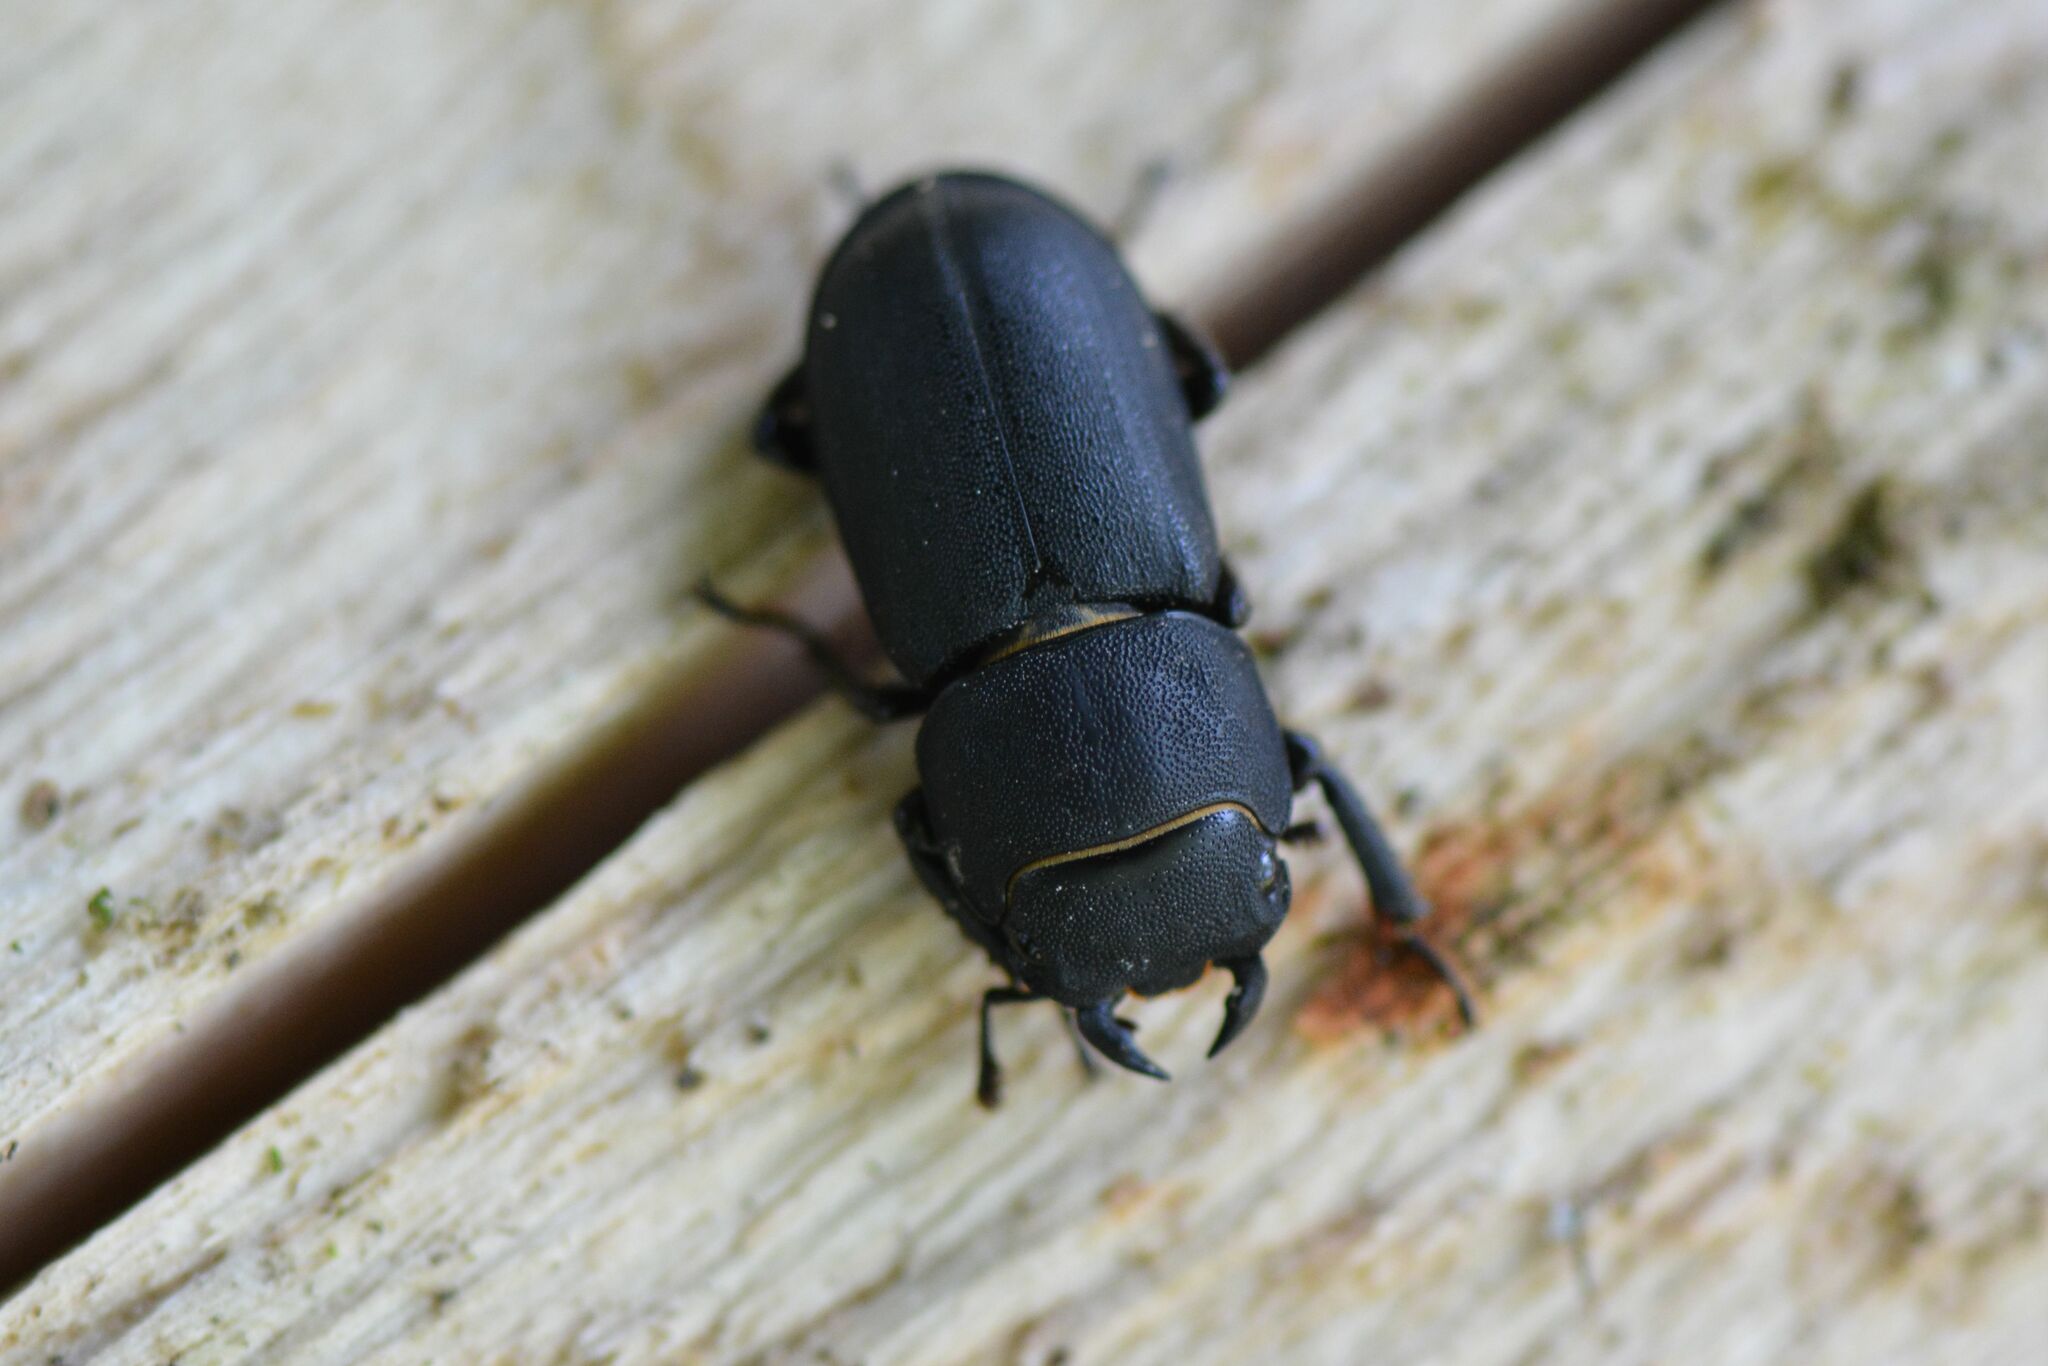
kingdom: Animalia
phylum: Arthropoda
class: Insecta
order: Coleoptera
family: Lucanidae
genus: Dorcus
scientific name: Dorcus parallelipipedus
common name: Lesser stag beetle
